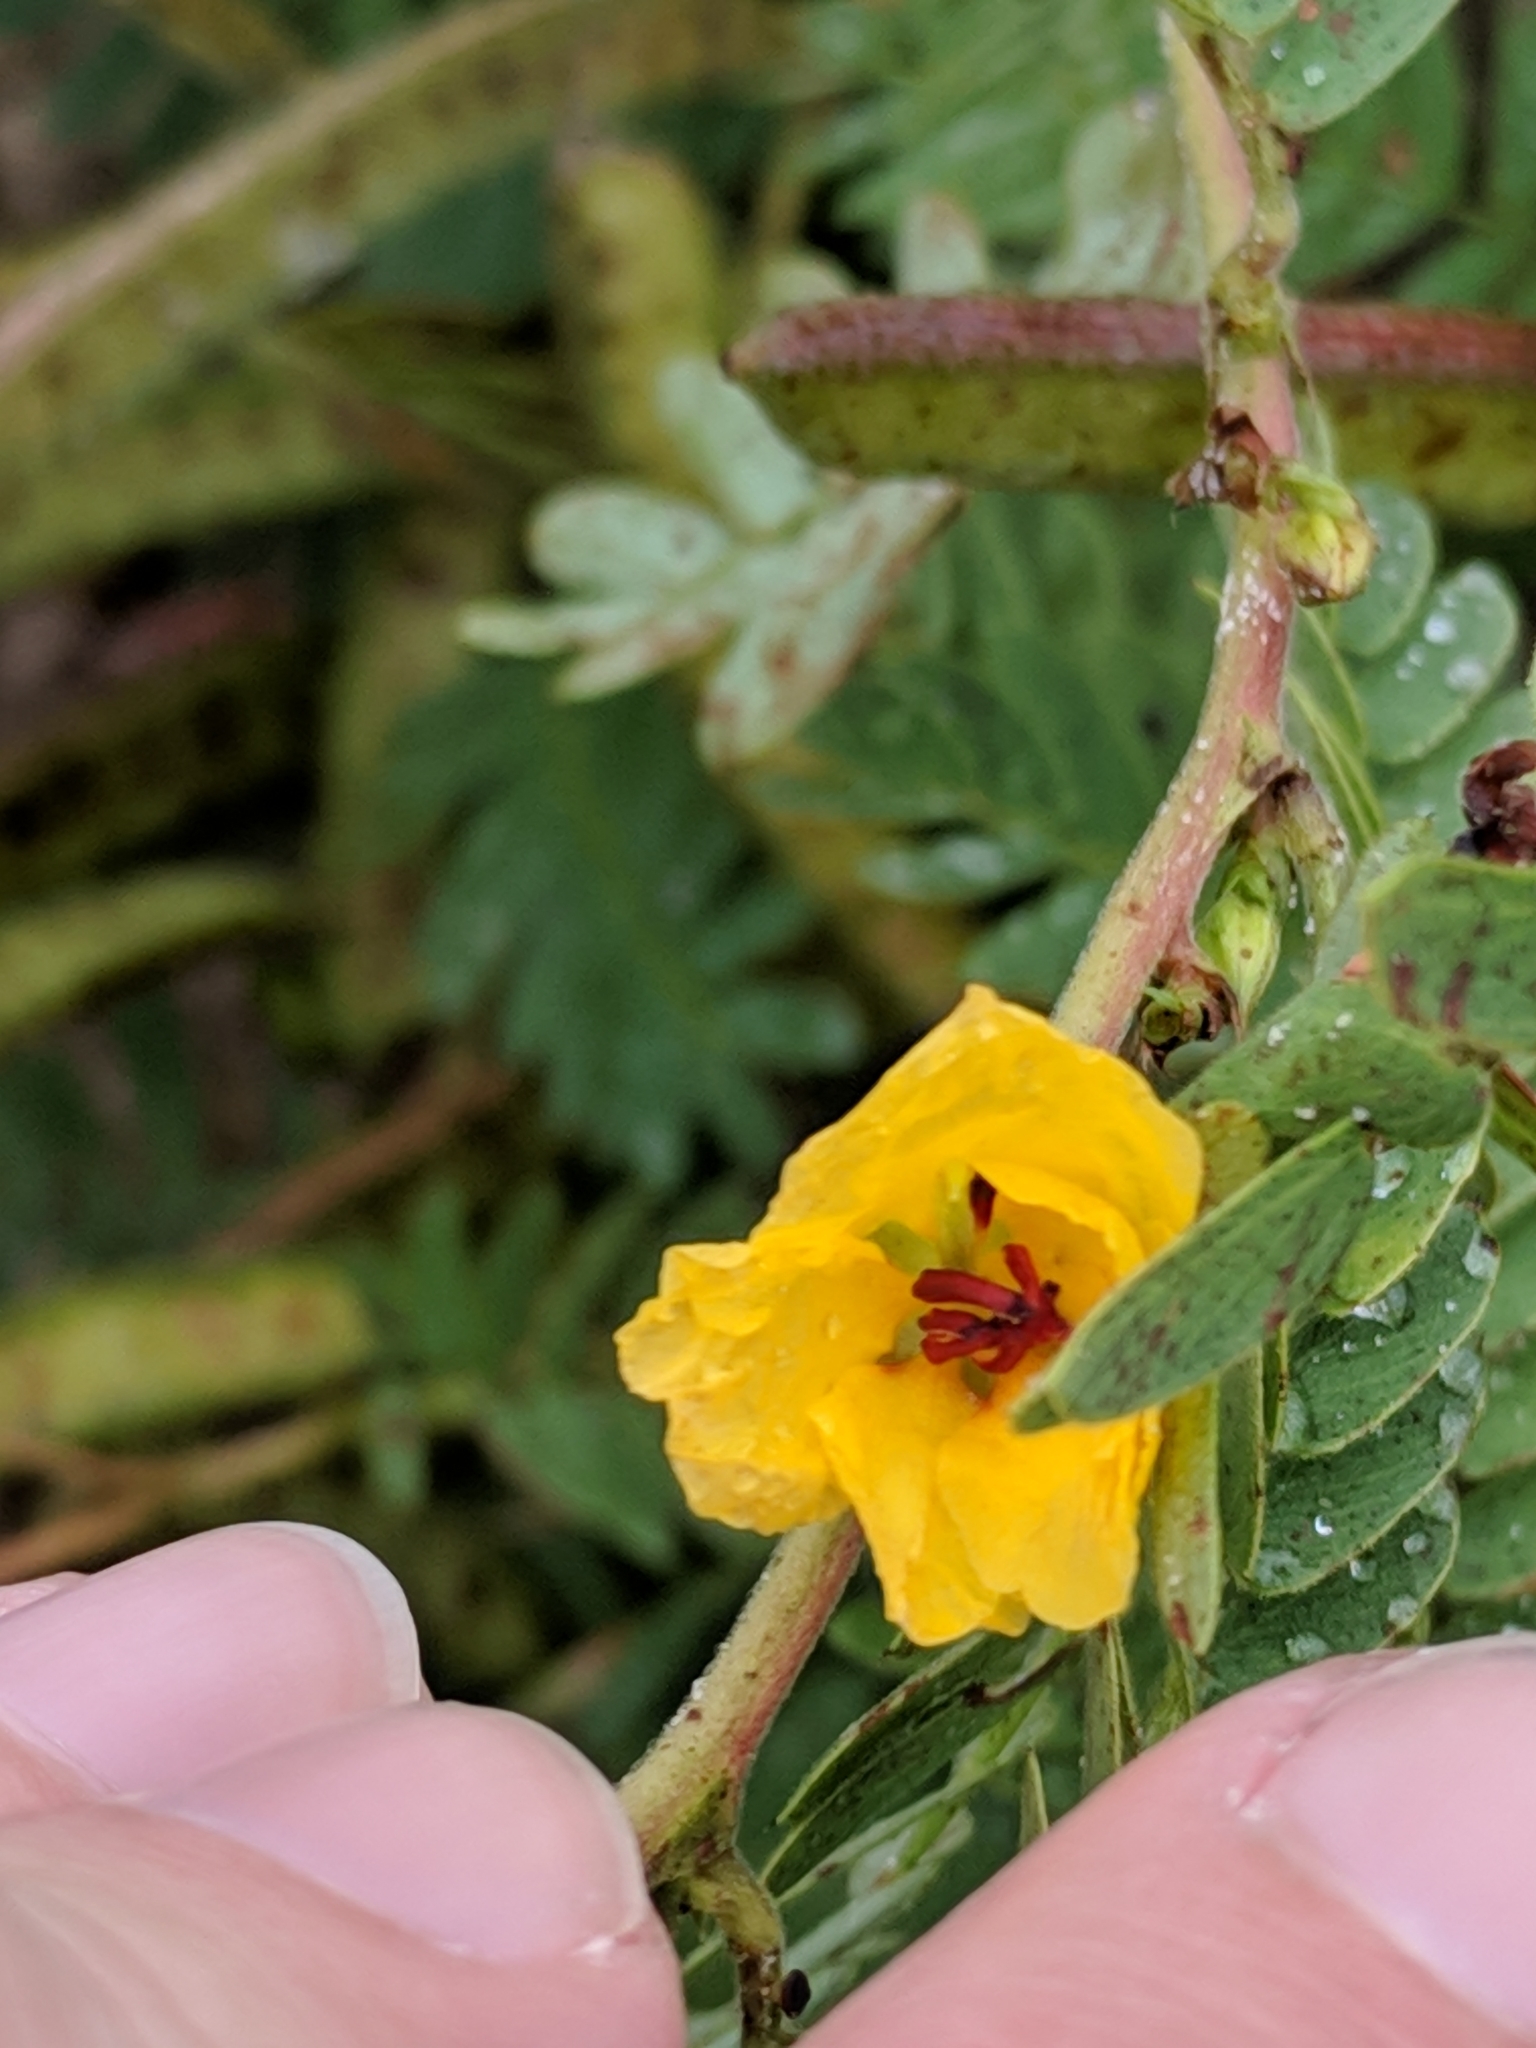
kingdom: Plantae
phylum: Tracheophyta
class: Magnoliopsida
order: Fabales
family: Fabaceae
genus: Chamaecrista
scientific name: Chamaecrista fasciculata
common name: Golden cassia
